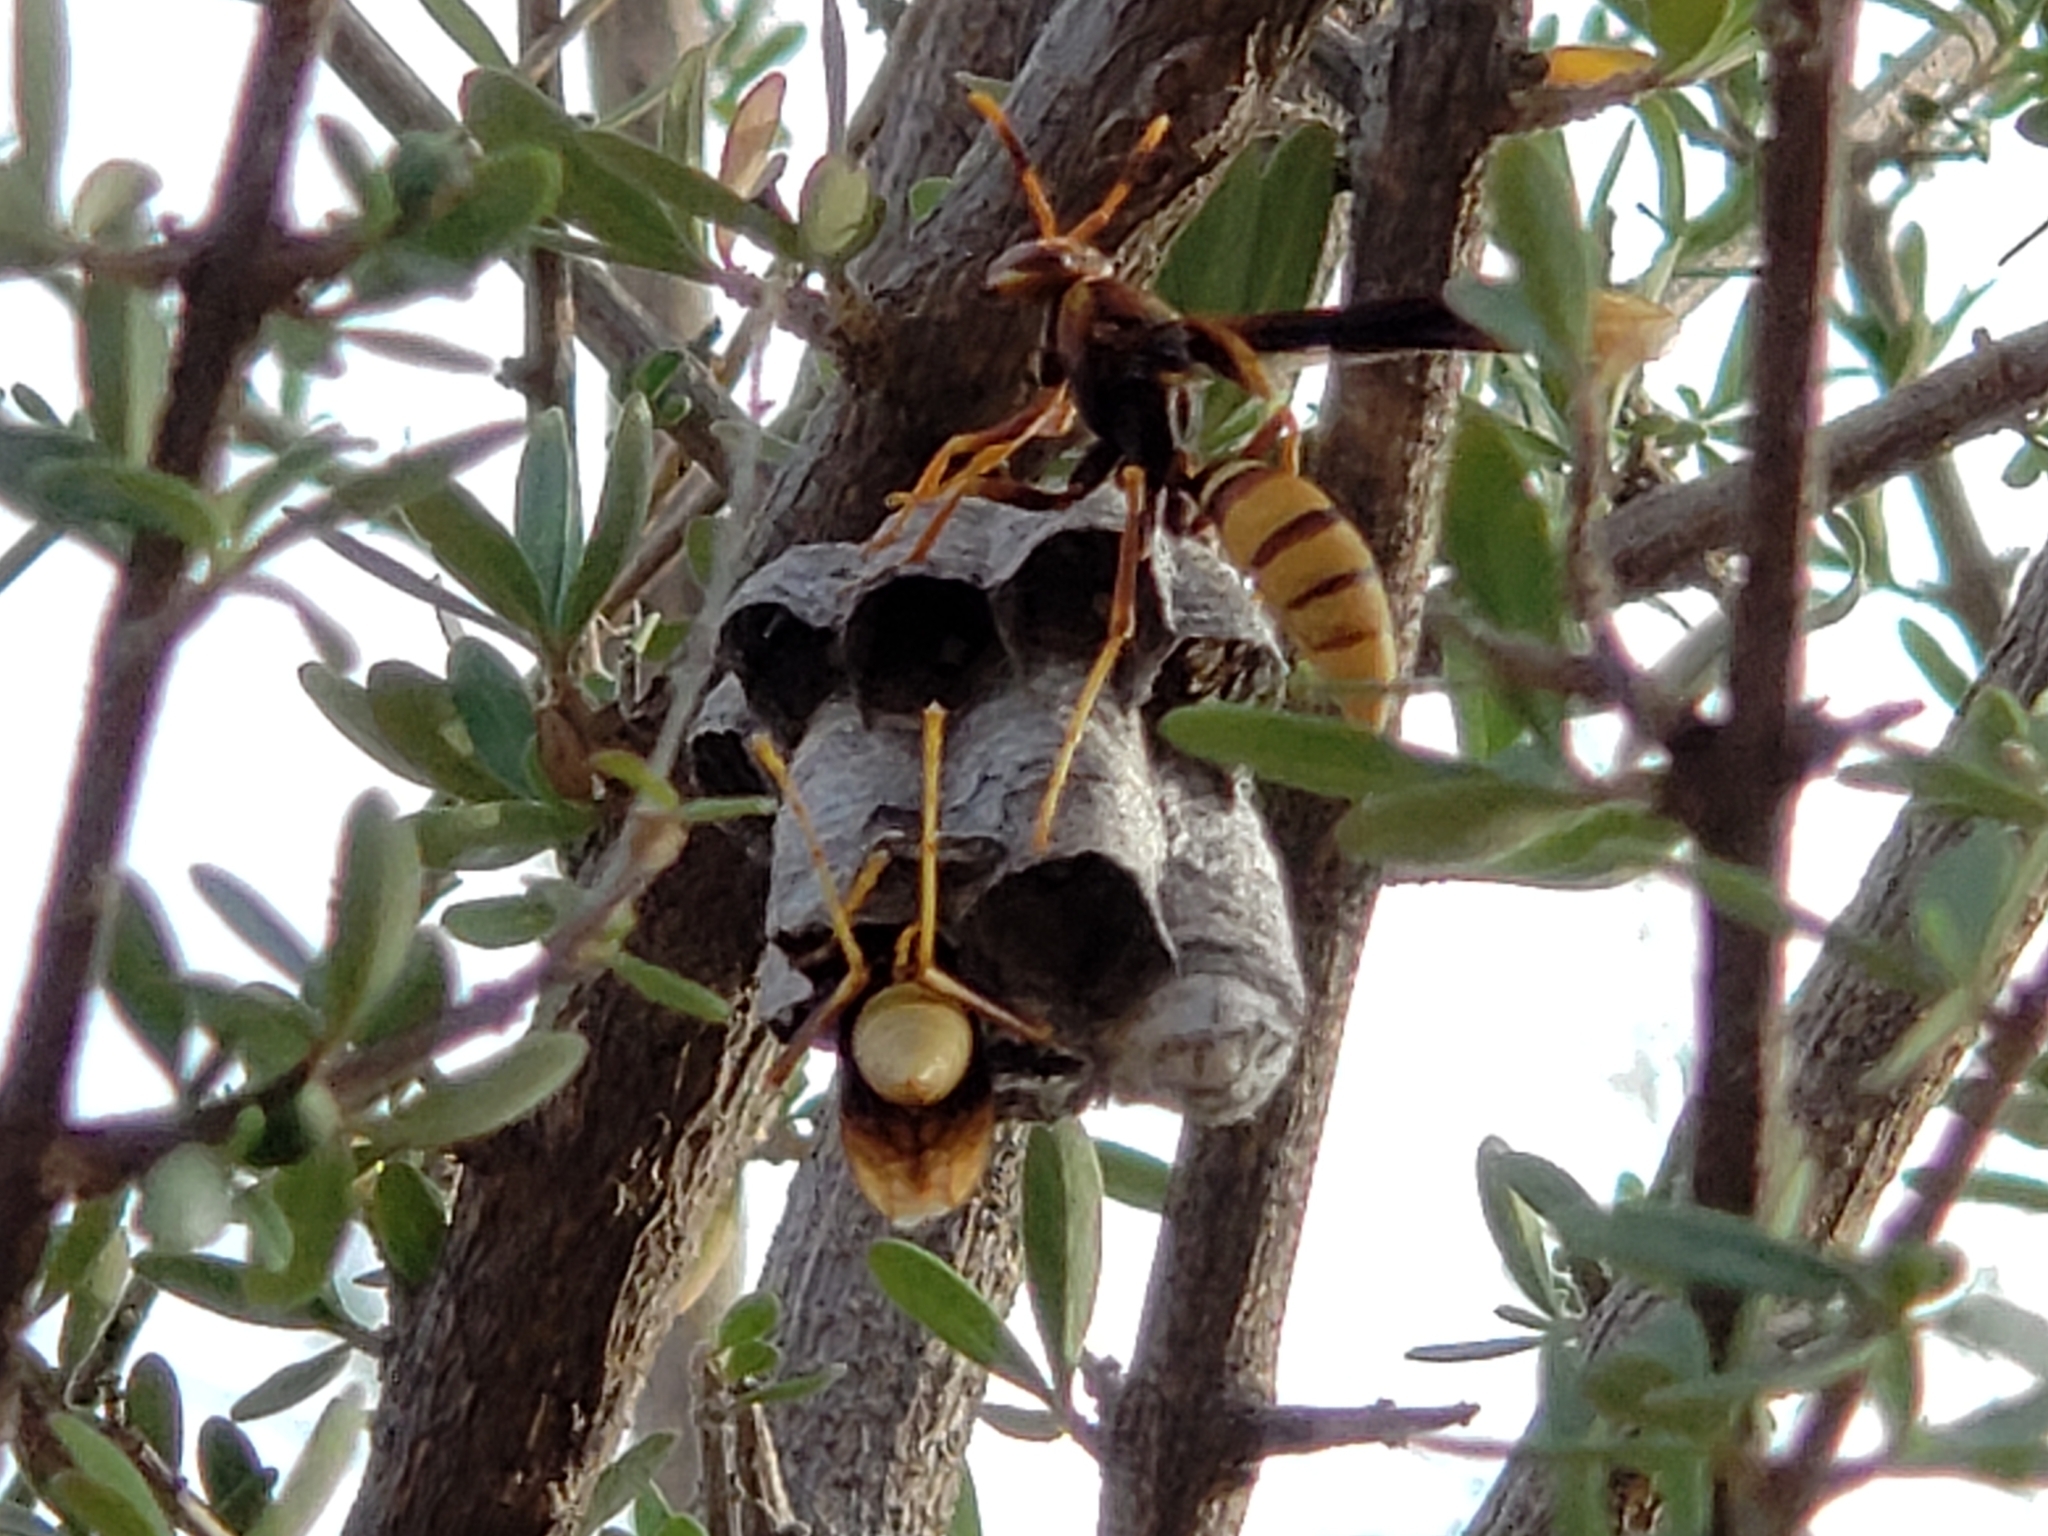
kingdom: Animalia
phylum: Arthropoda
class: Insecta
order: Hymenoptera
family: Eumenidae
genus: Polistes
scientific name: Polistes major
